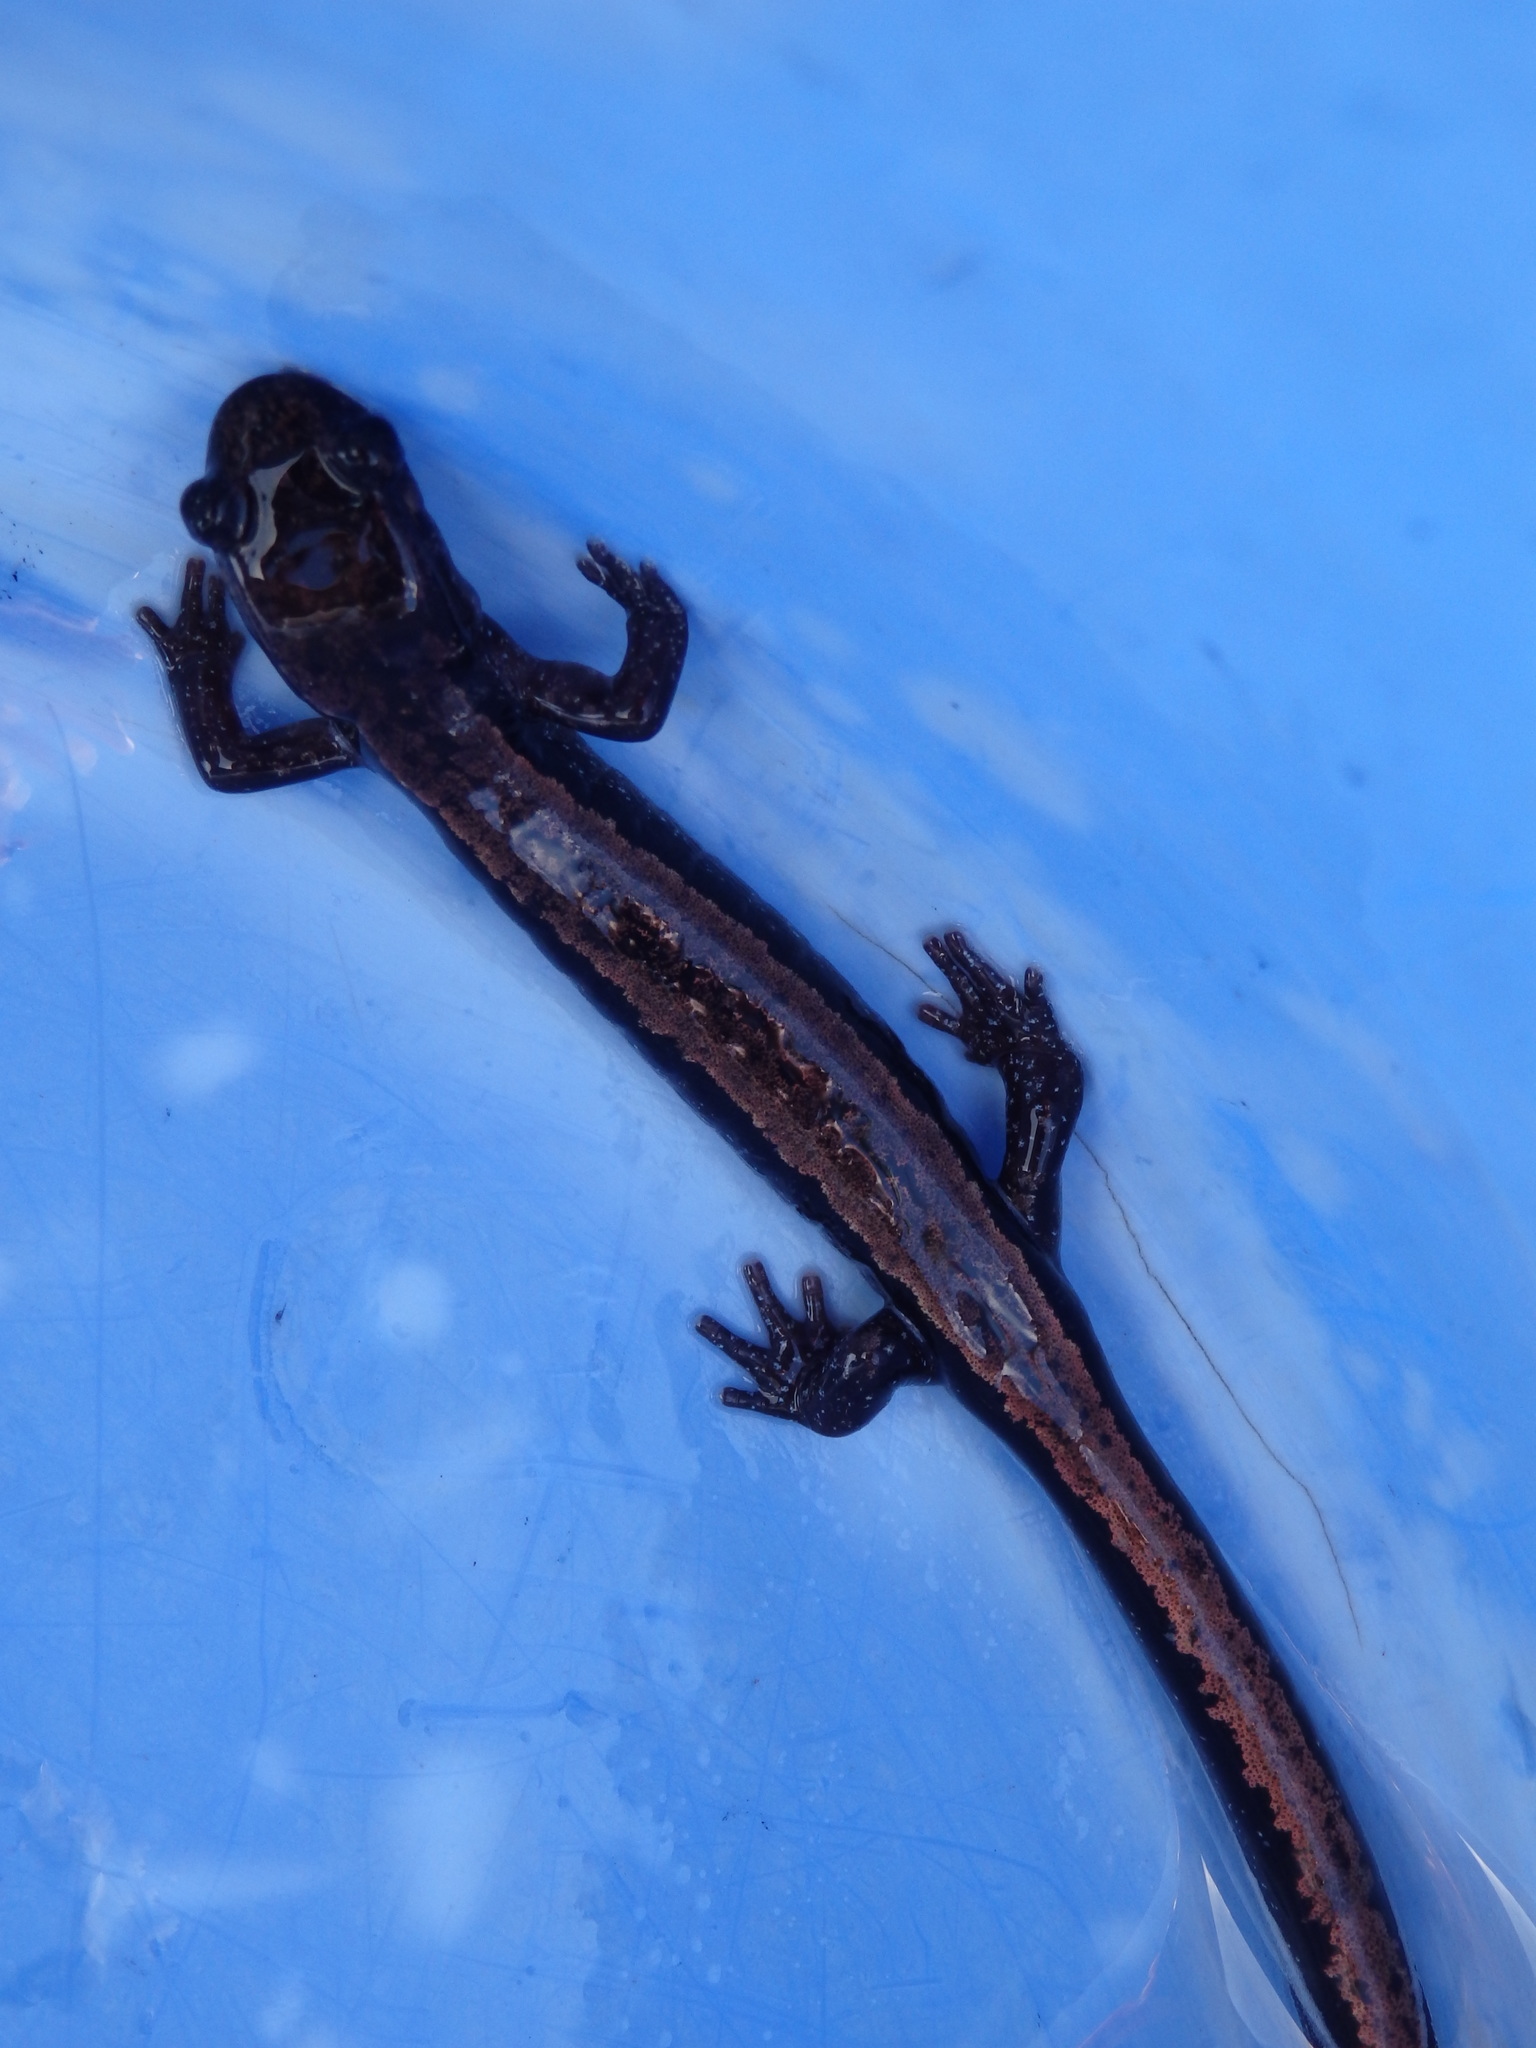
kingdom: Animalia
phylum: Chordata
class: Amphibia
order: Caudata
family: Salamandridae
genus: Chioglossa
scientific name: Chioglossa lusitanica
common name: Gold-striped salamander
